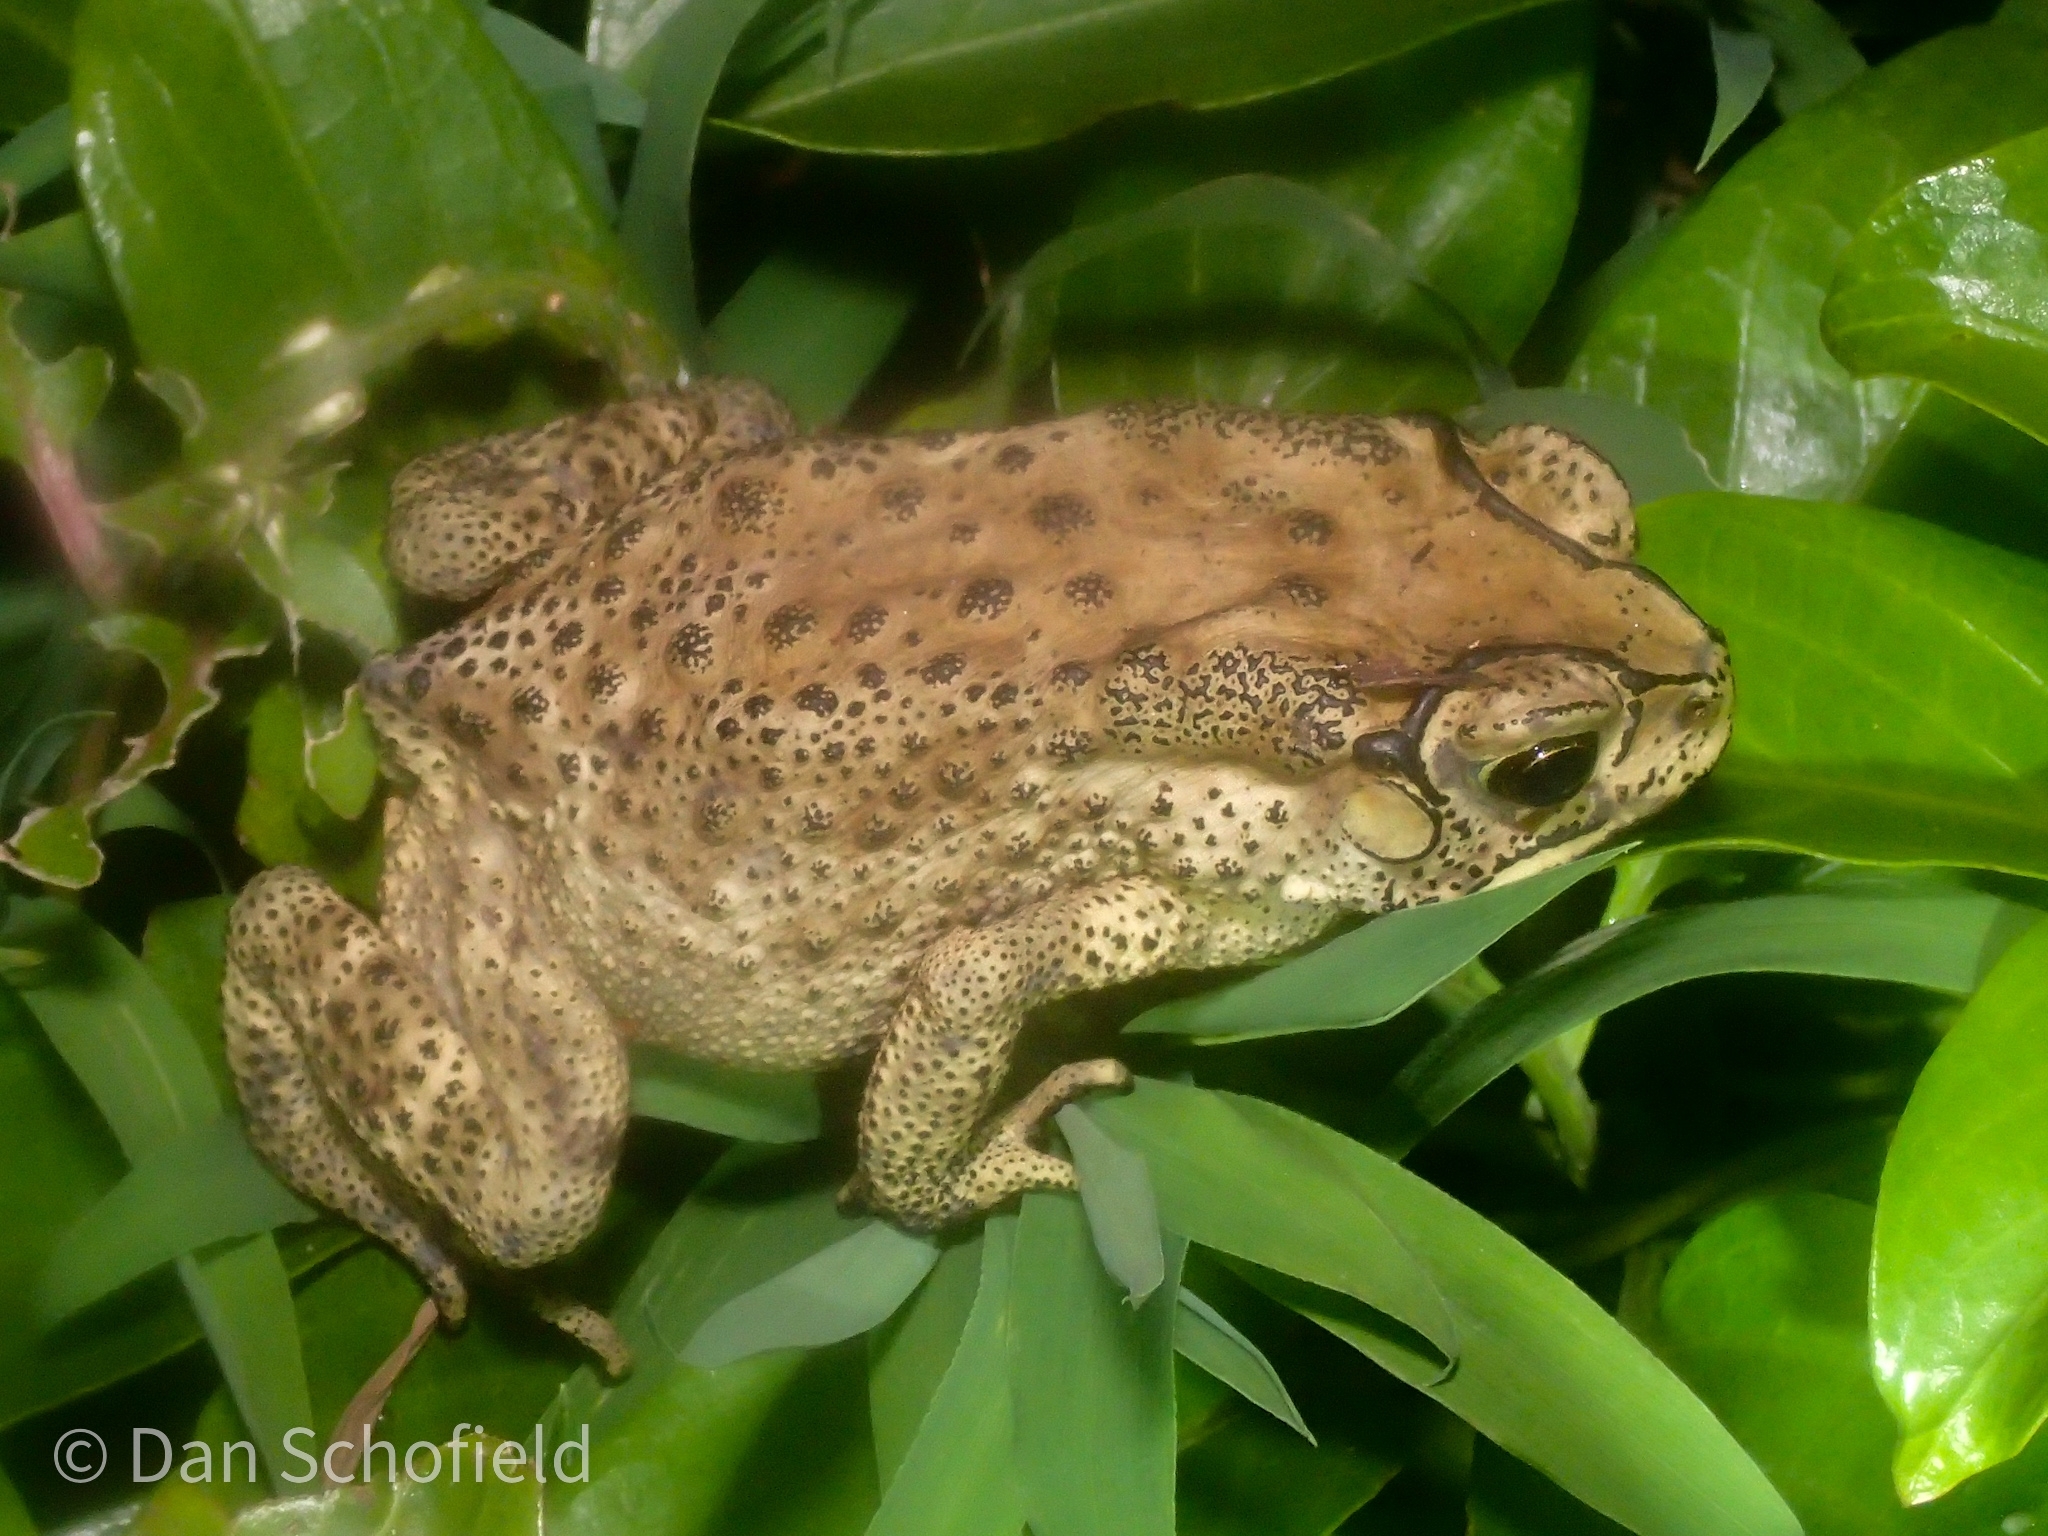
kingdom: Animalia
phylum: Chordata
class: Amphibia
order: Anura
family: Bufonidae
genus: Duttaphrynus
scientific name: Duttaphrynus melanostictus
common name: Common sunda toad
